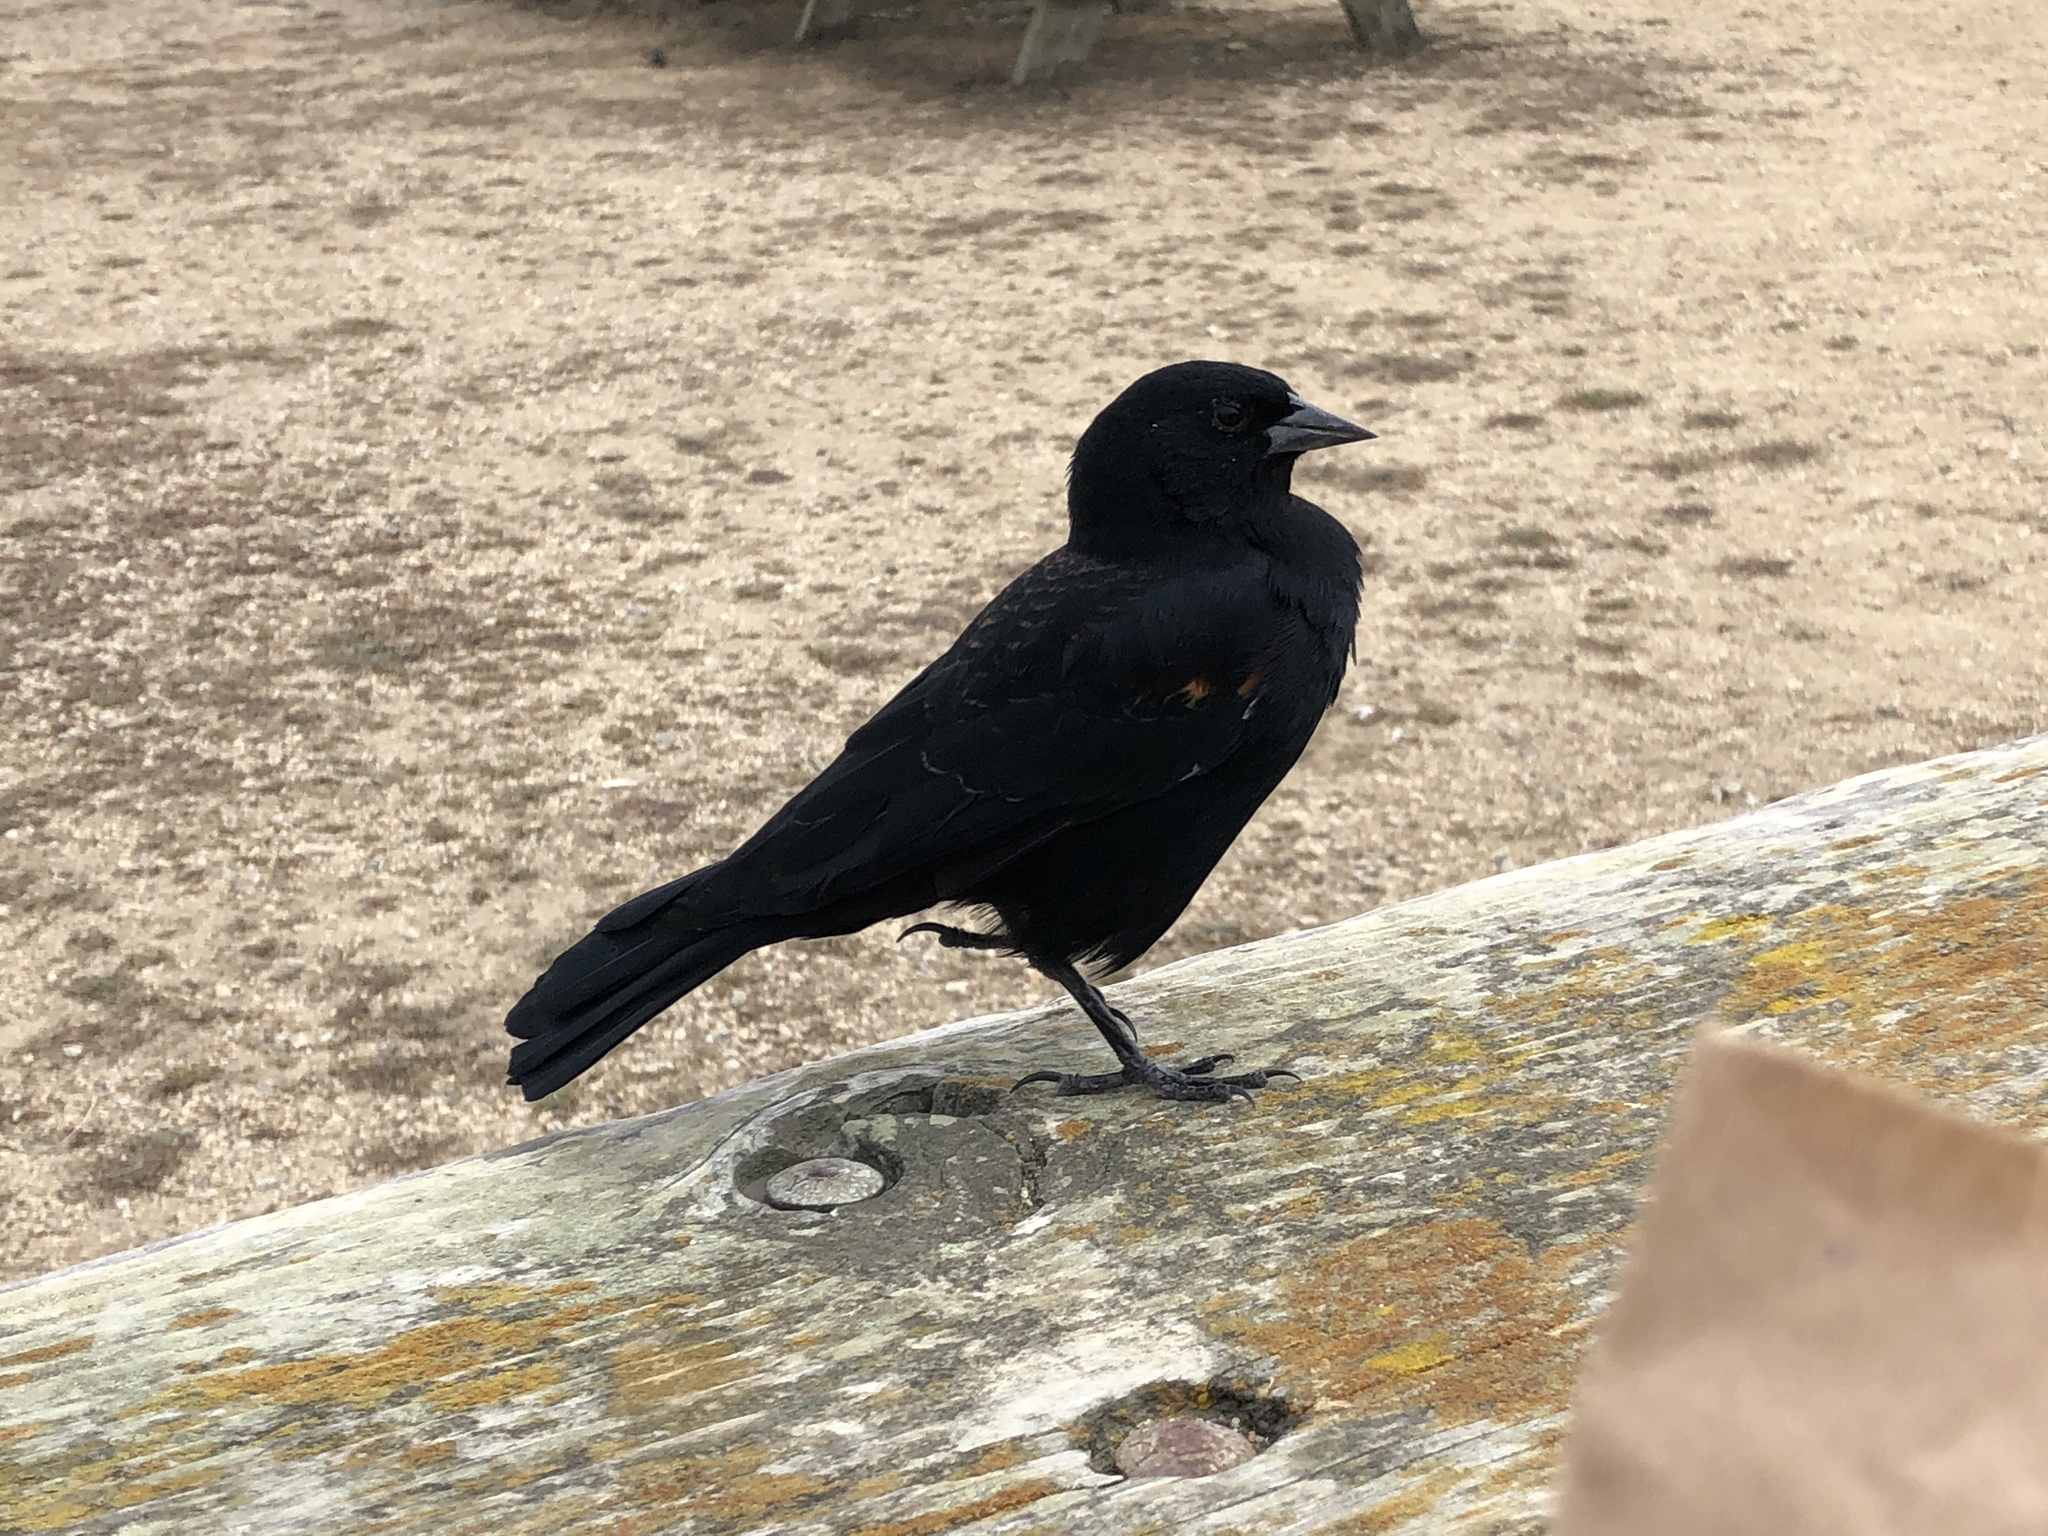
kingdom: Animalia
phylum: Chordata
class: Aves
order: Passeriformes
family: Icteridae
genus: Agelaius
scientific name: Agelaius phoeniceus
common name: Red-winged blackbird
